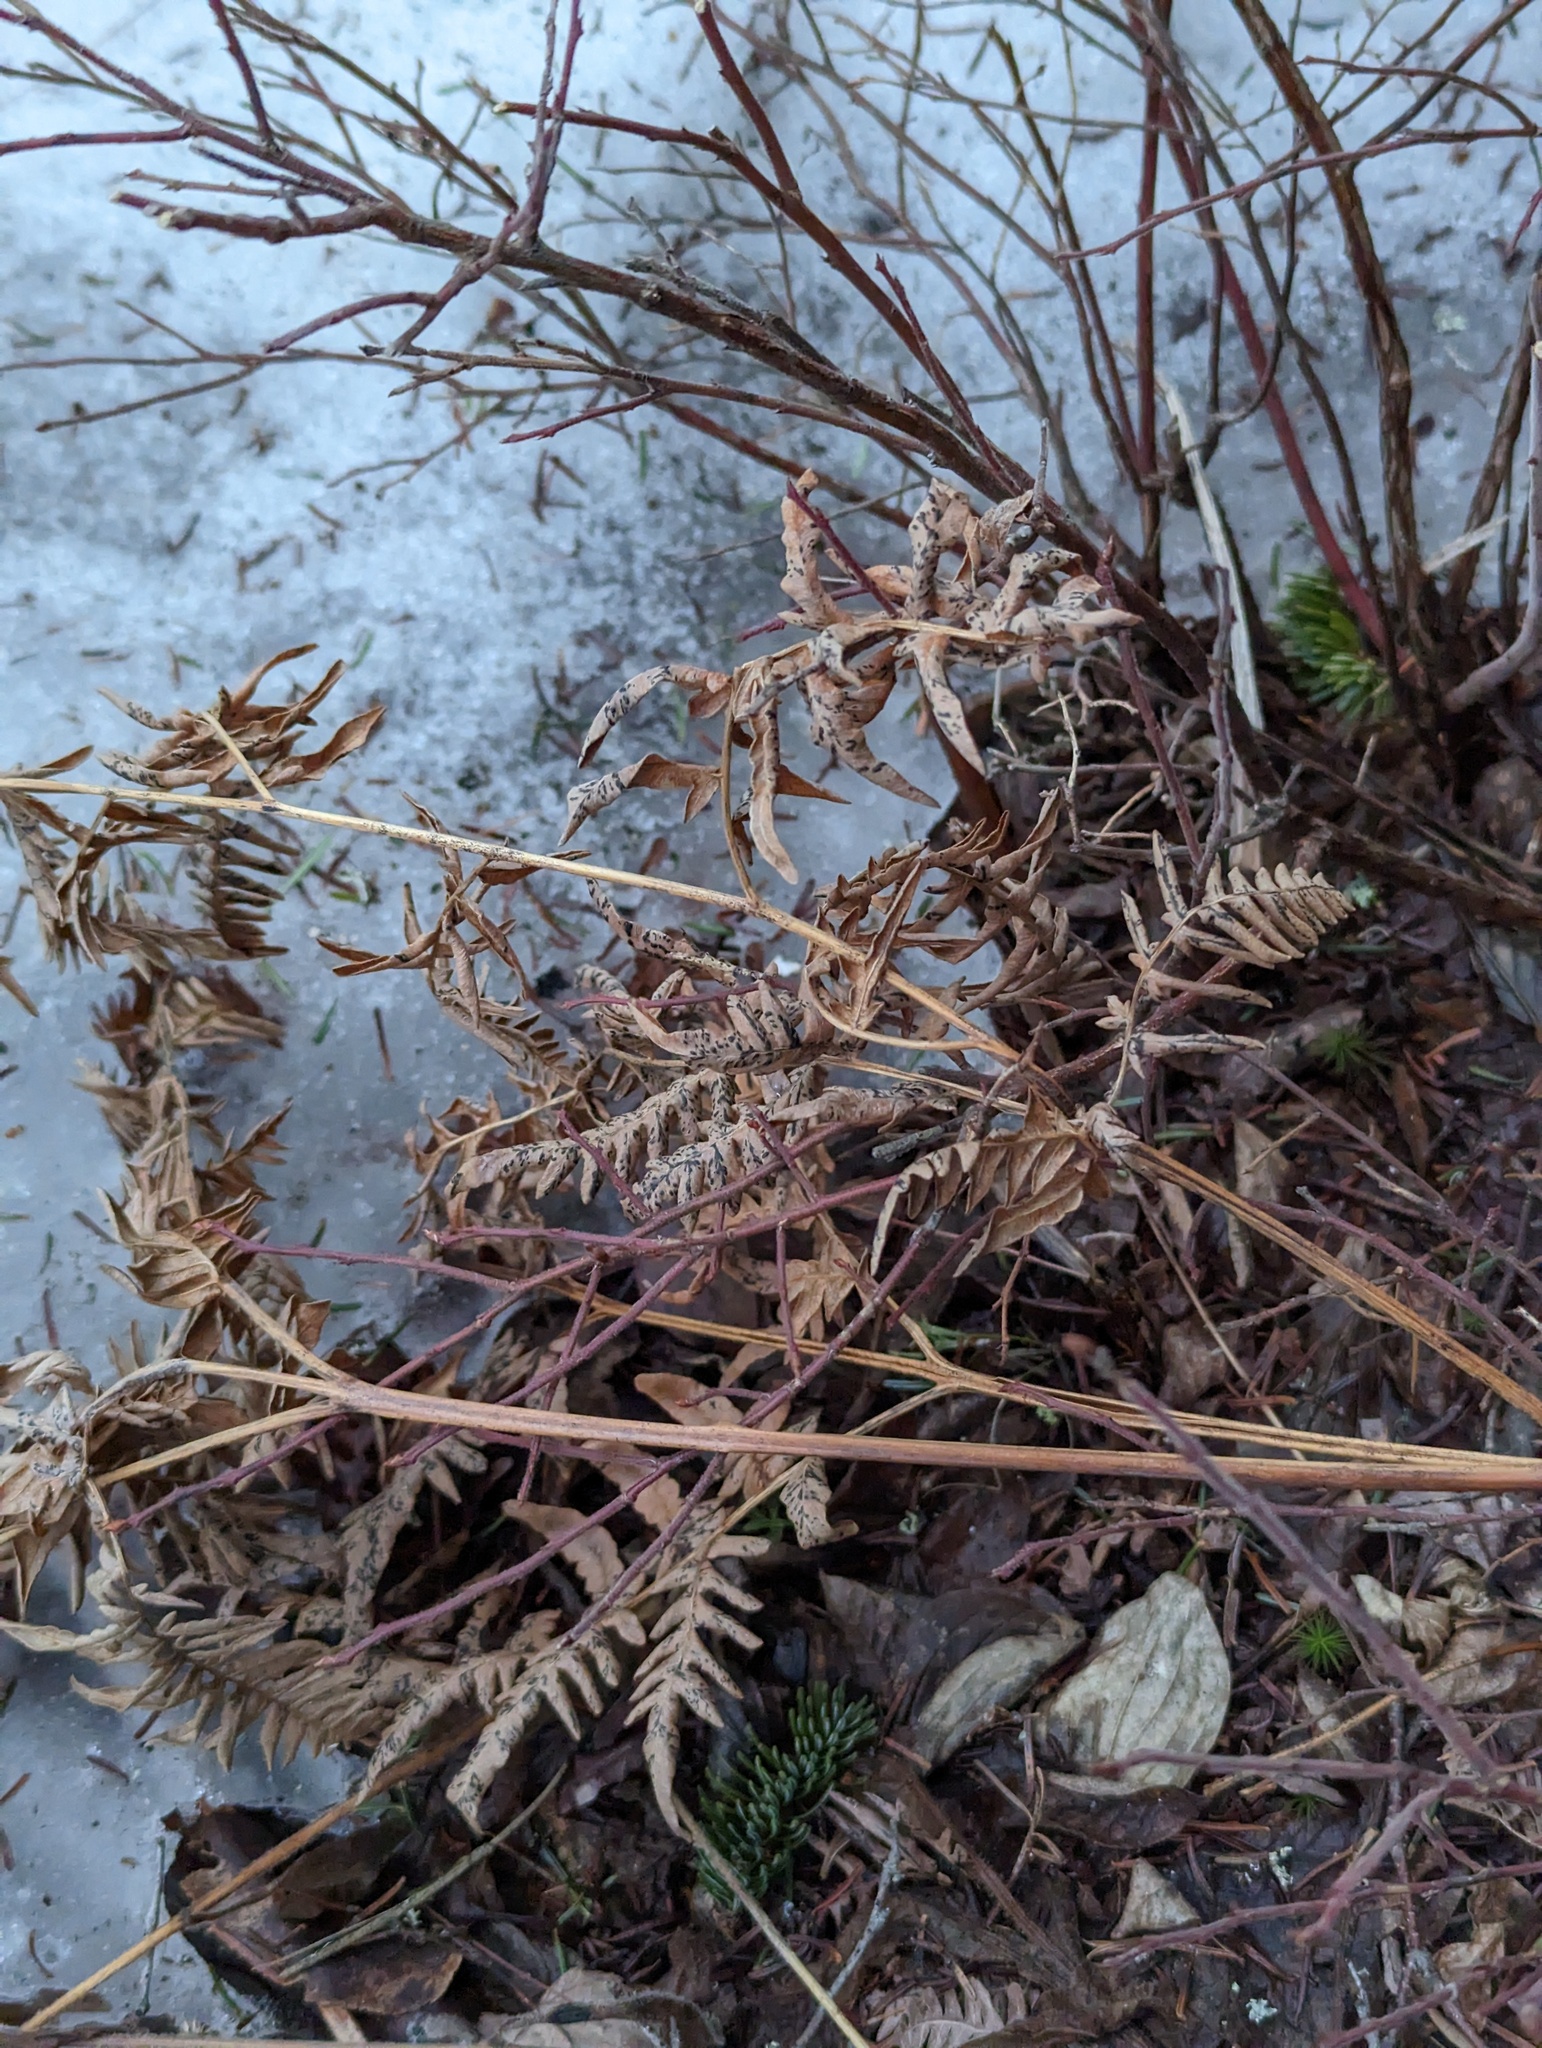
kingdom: Plantae
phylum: Tracheophyta
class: Polypodiopsida
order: Polypodiales
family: Dennstaedtiaceae
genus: Pteridium
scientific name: Pteridium aquilinum
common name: Bracken
